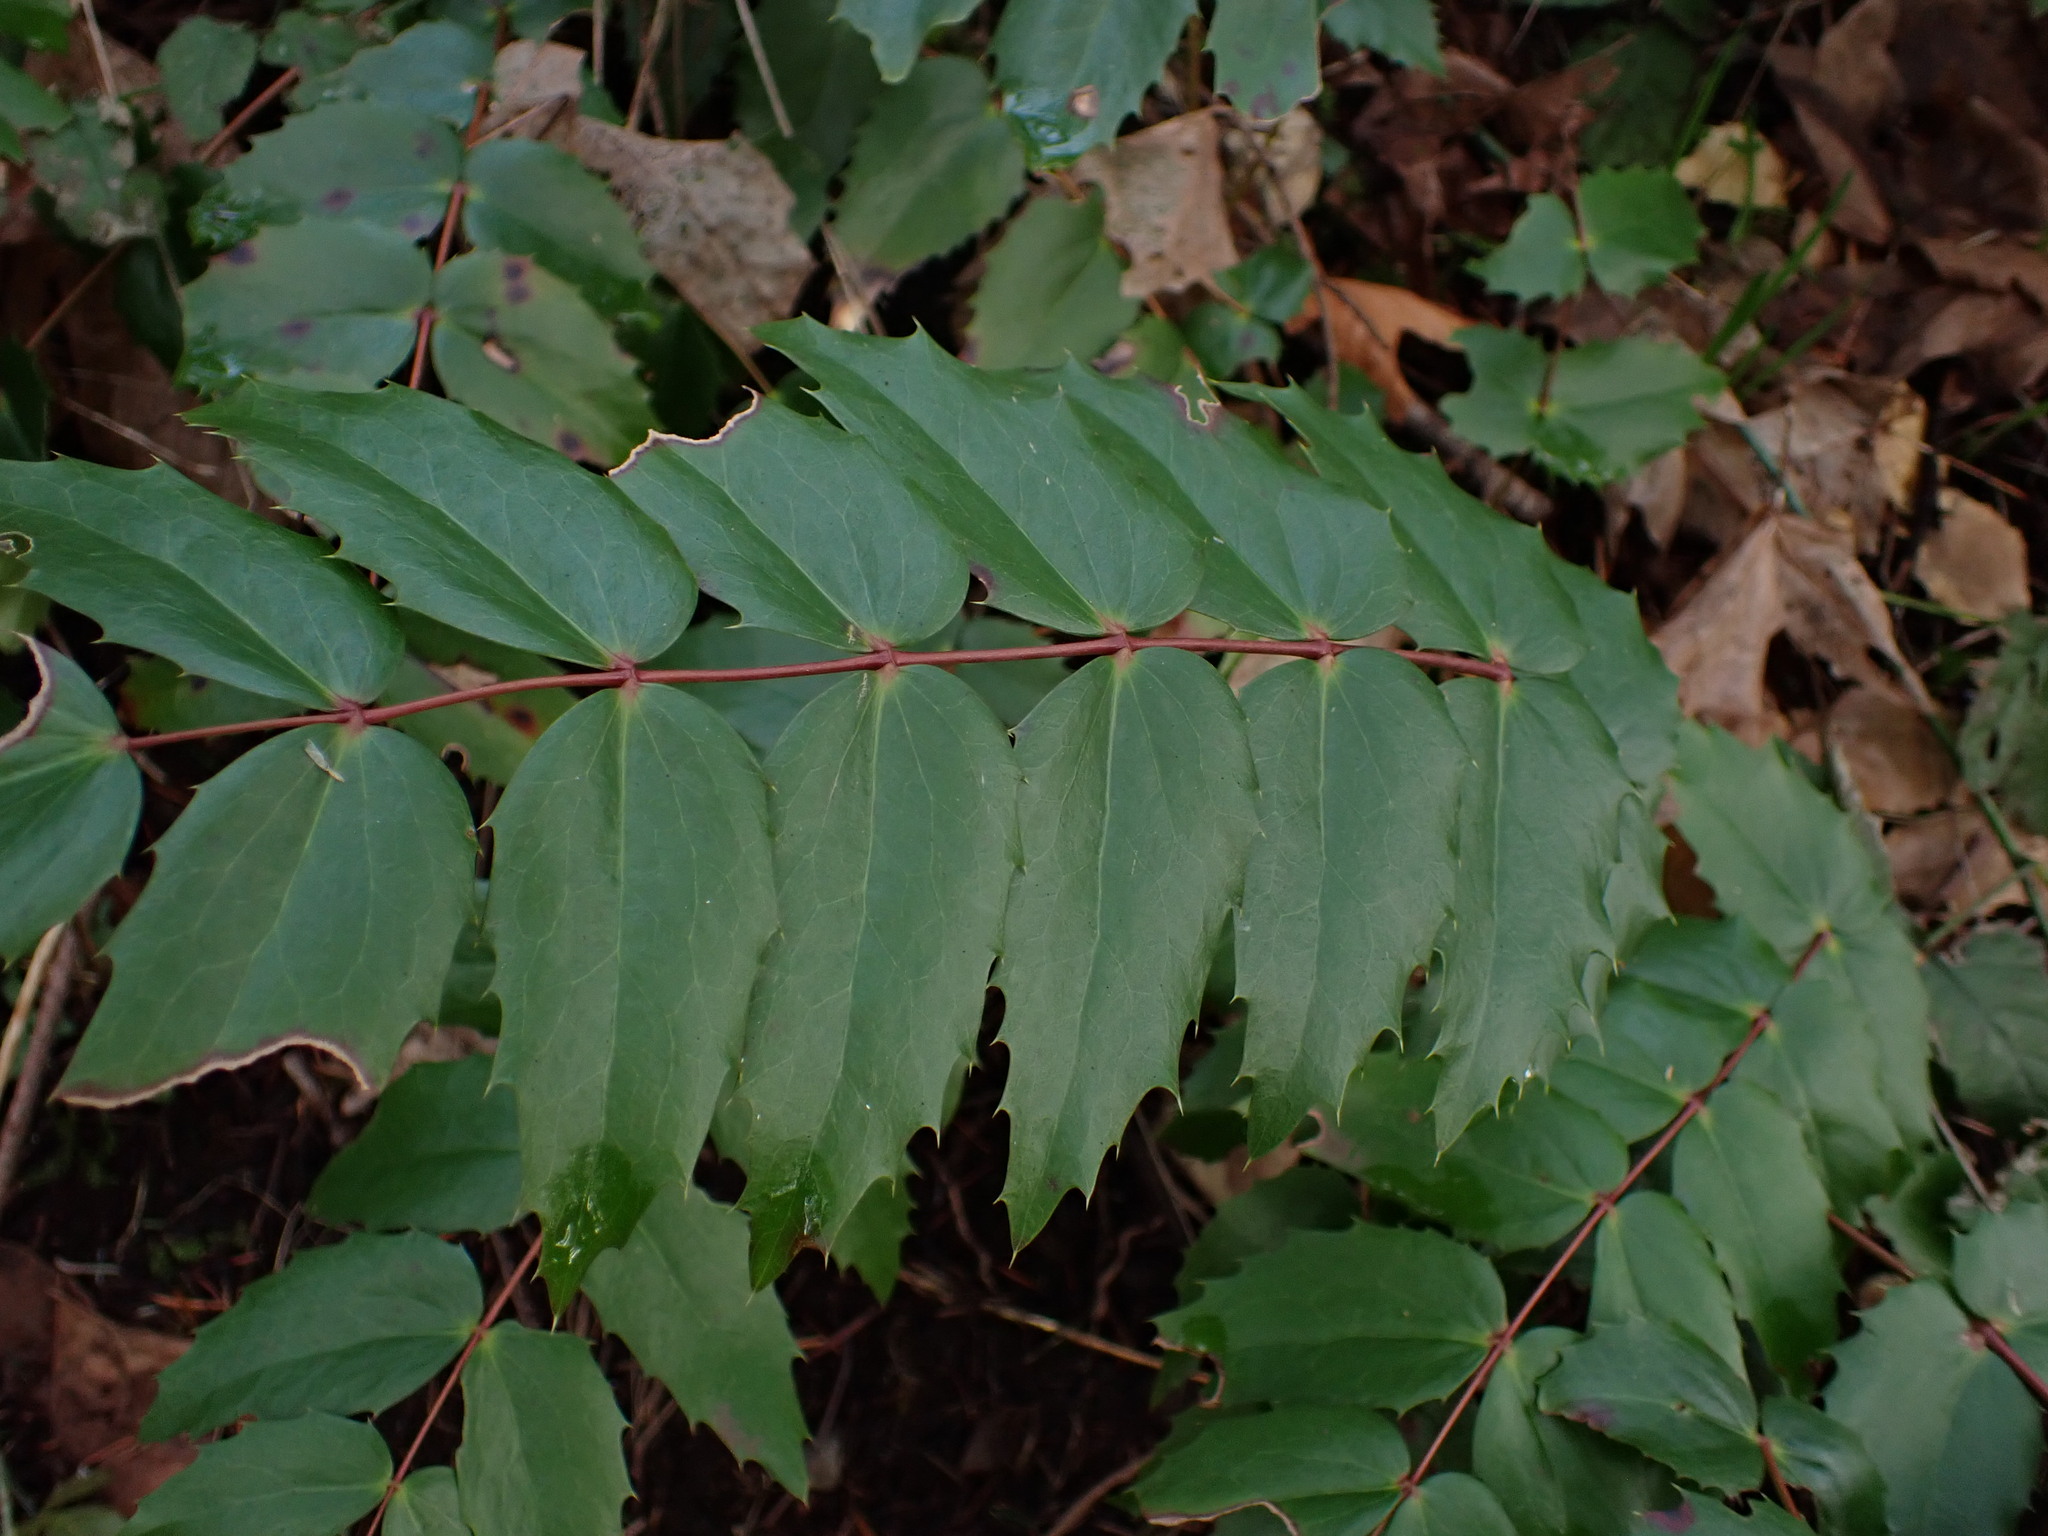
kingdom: Plantae
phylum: Tracheophyta
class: Magnoliopsida
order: Ranunculales
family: Berberidaceae
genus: Mahonia
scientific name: Mahonia nervosa
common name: Cascade oregon-grape
